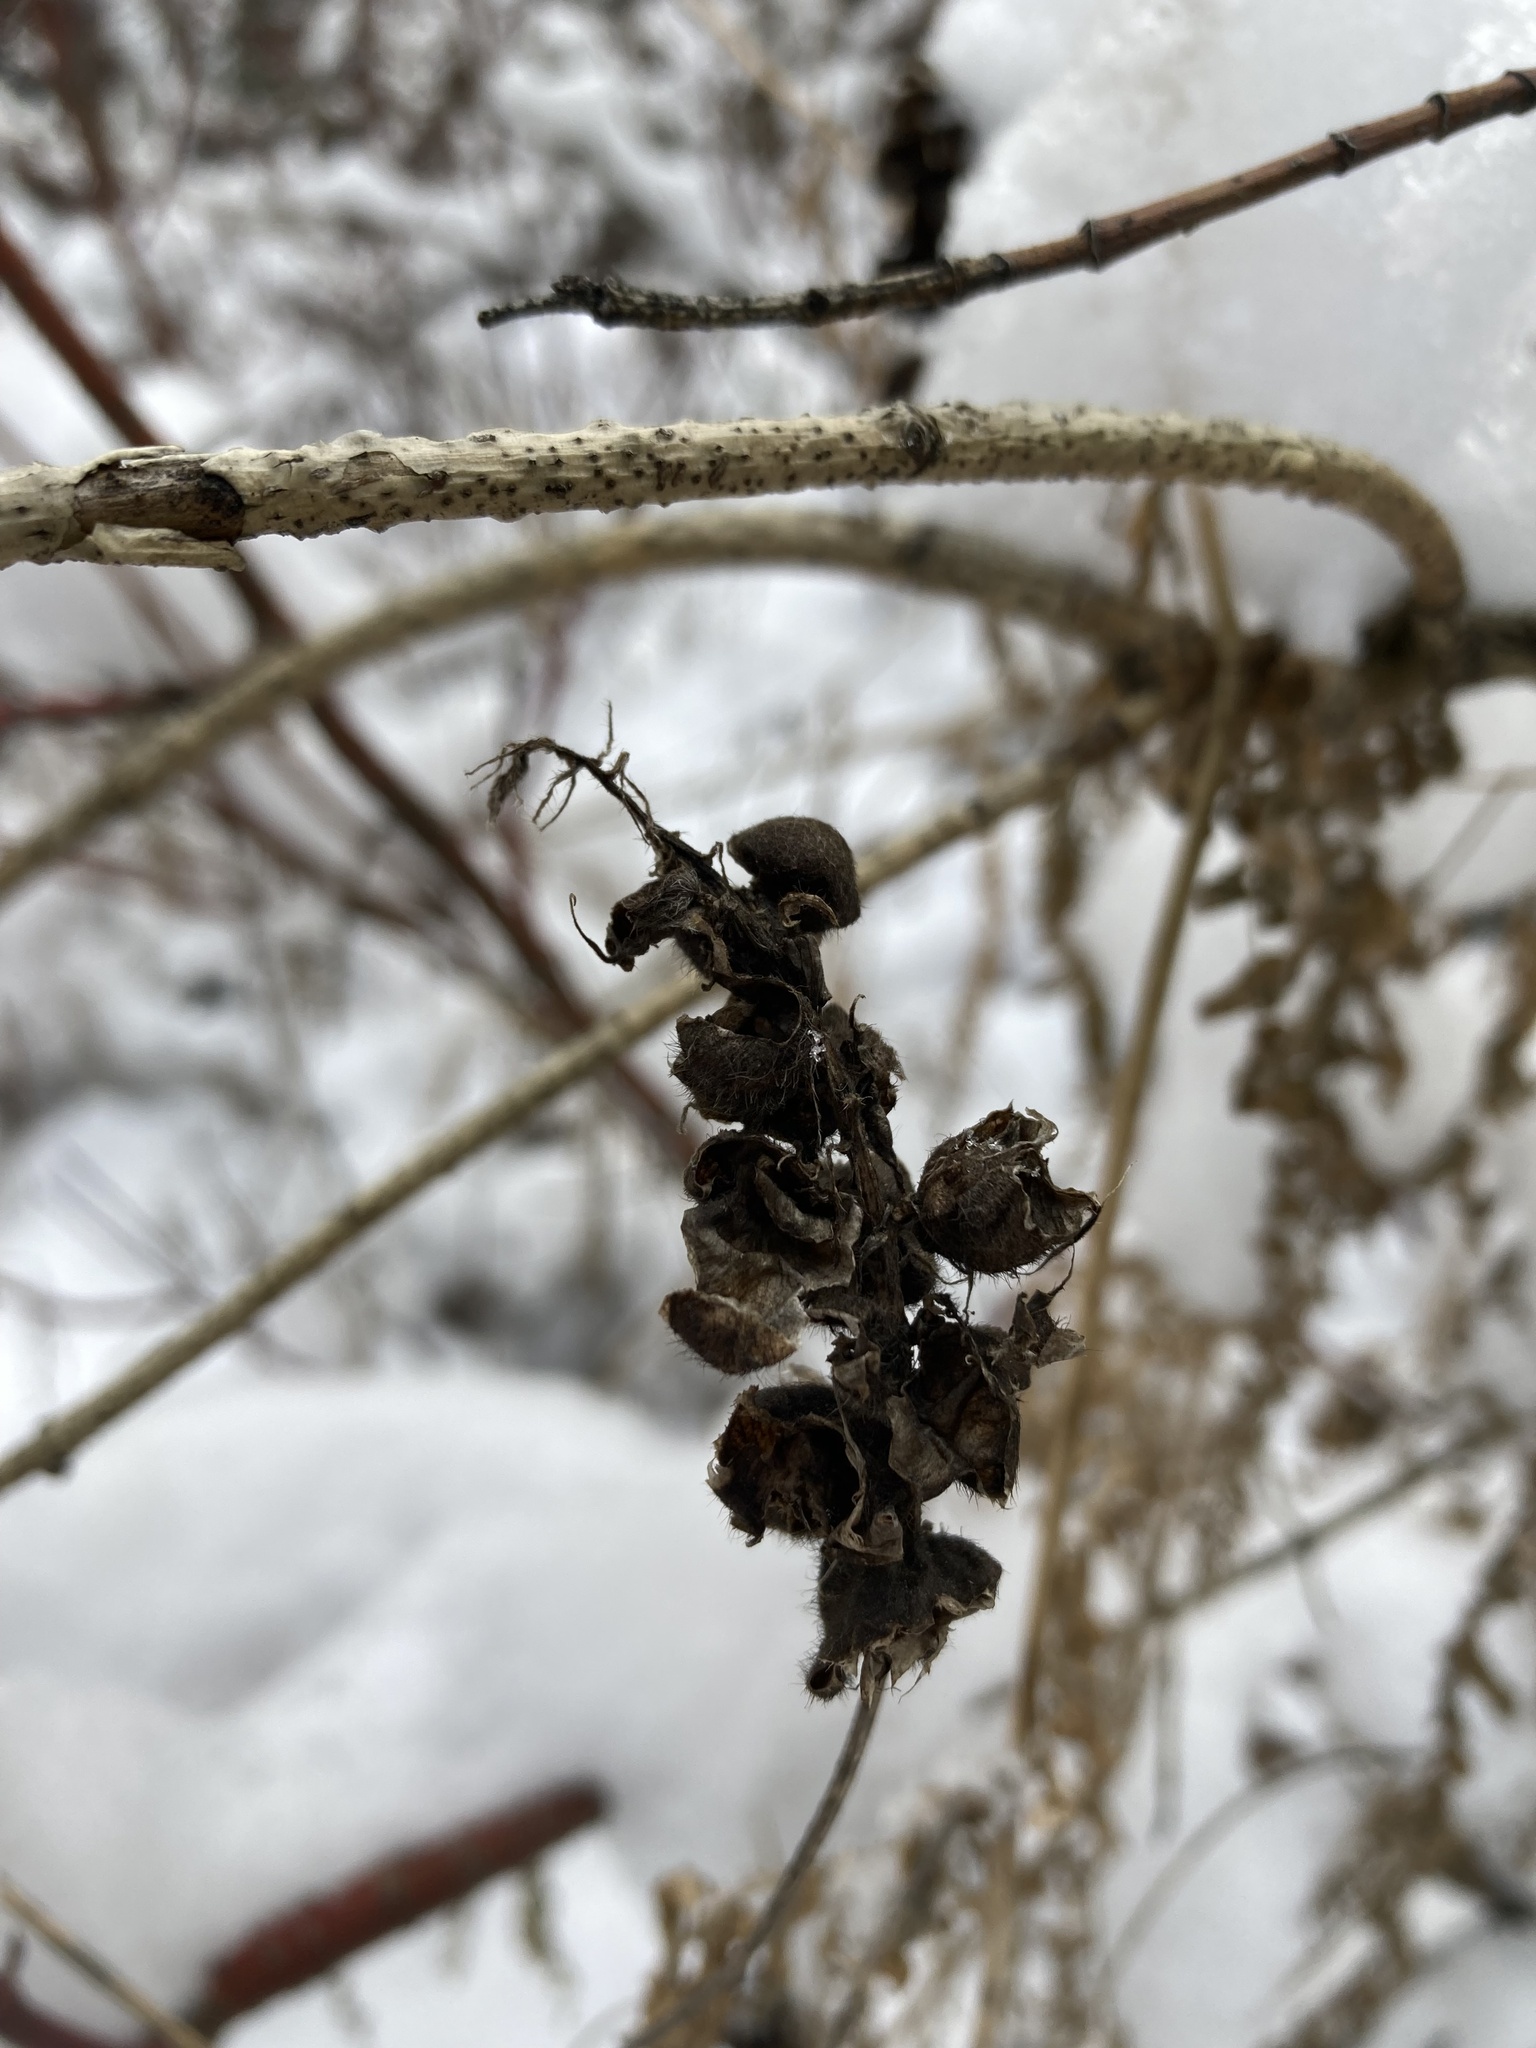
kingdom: Plantae
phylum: Tracheophyta
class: Magnoliopsida
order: Fabales
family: Fabaceae
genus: Astragalus
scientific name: Astragalus cicer
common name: Chick-pea milk-vetch
